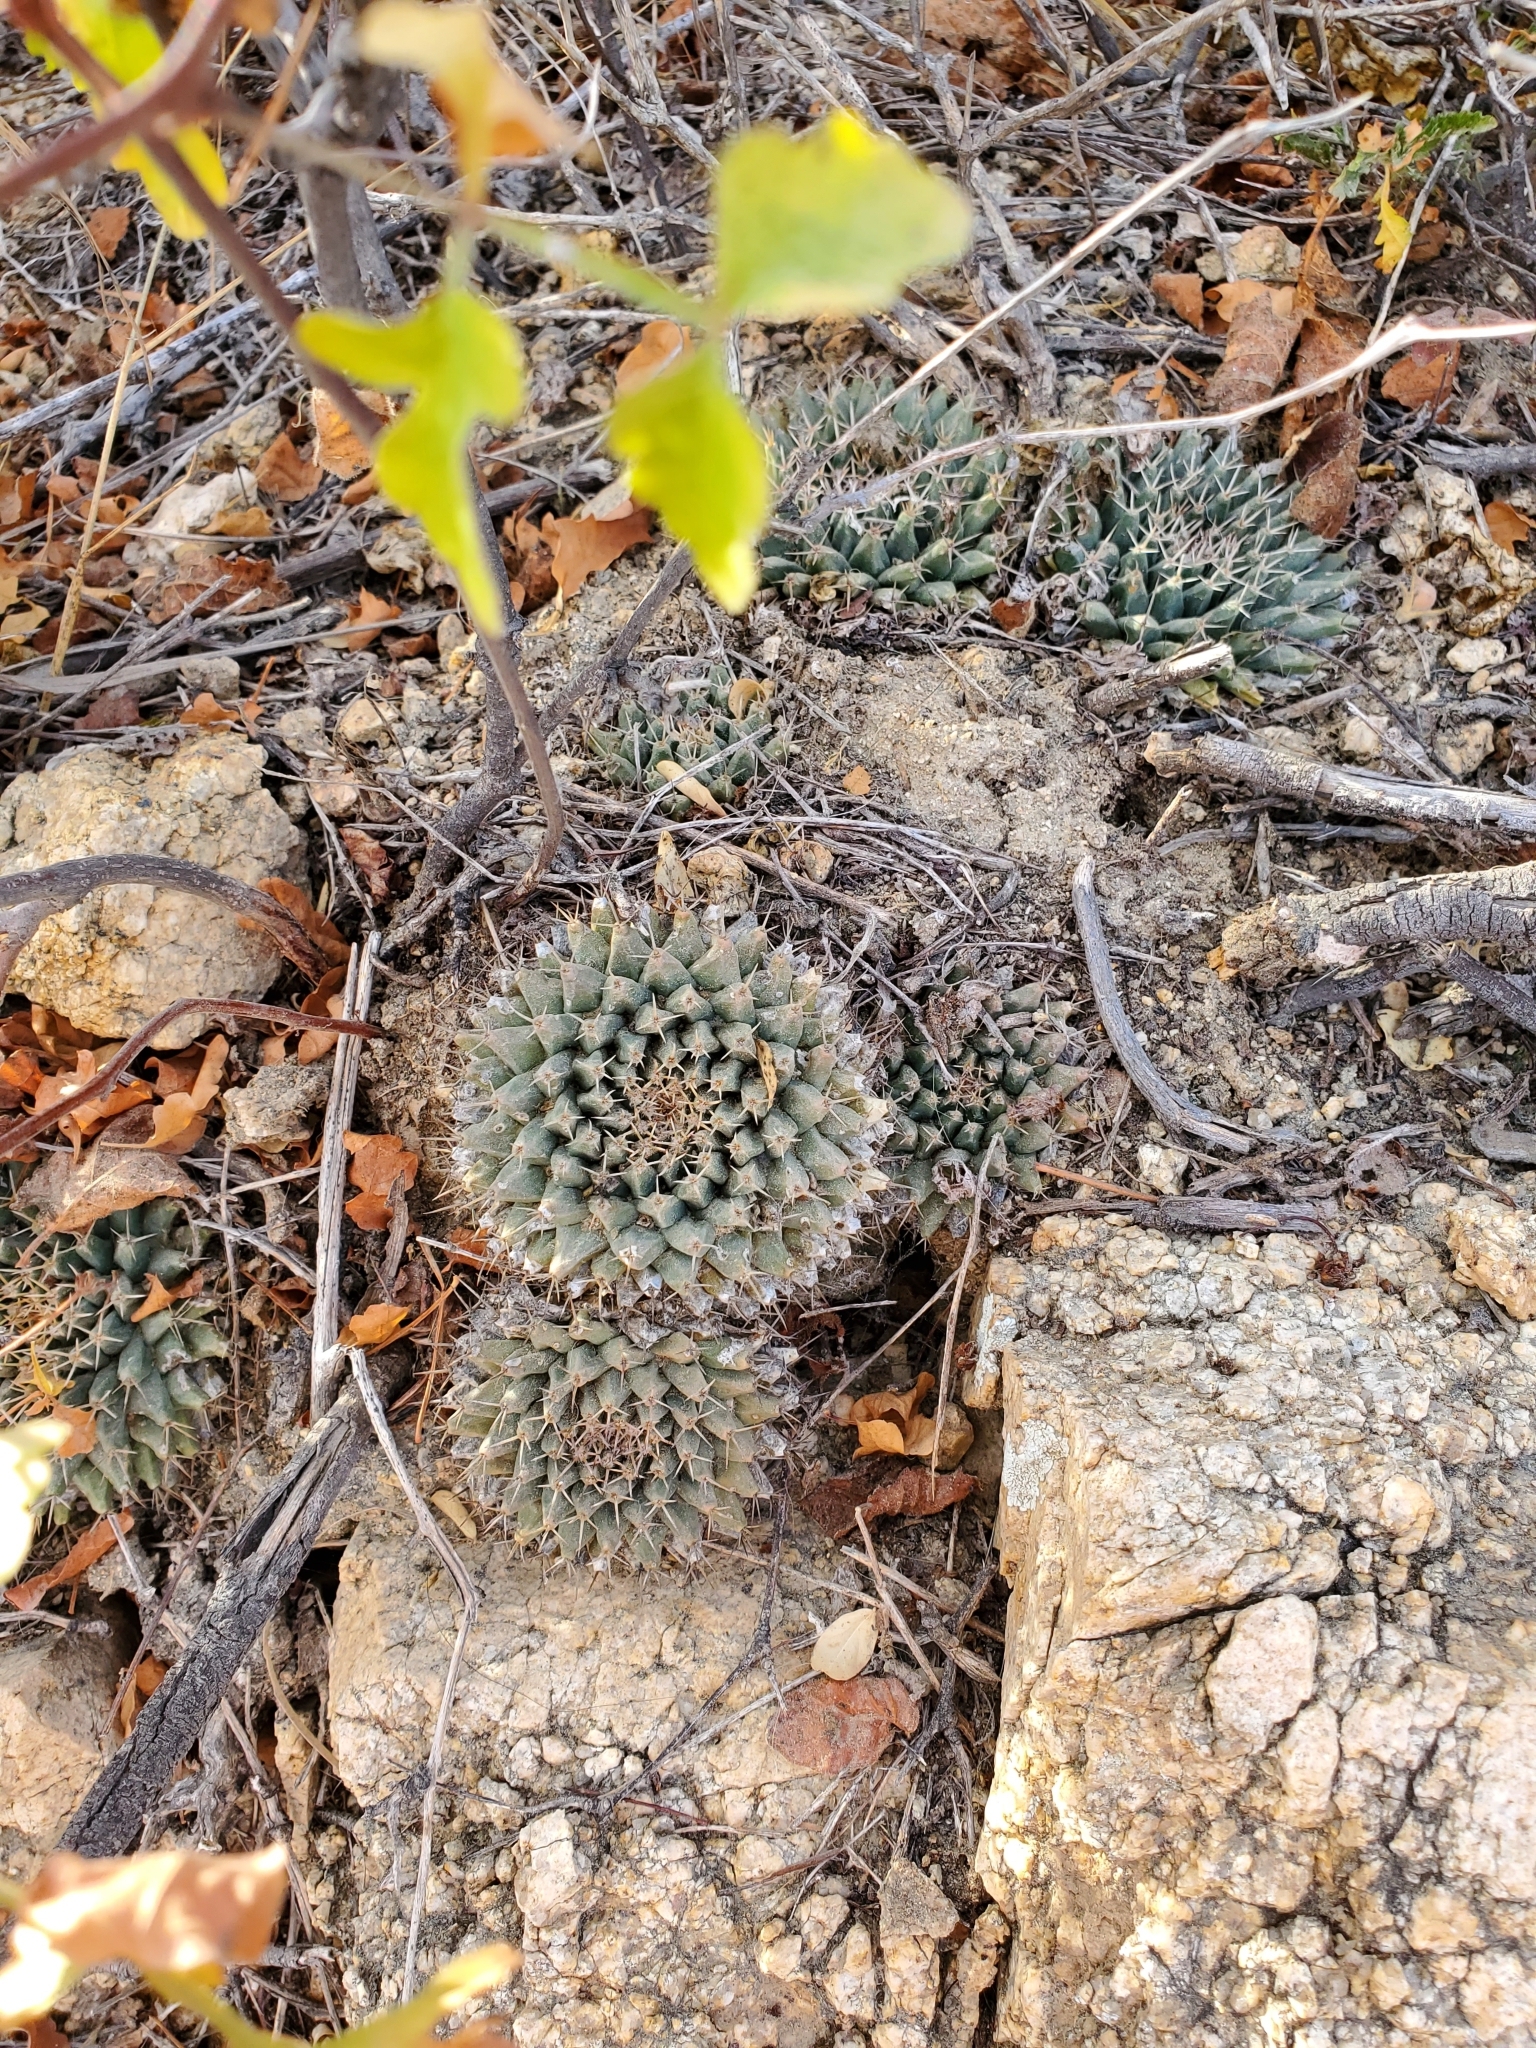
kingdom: Plantae
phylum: Tracheophyta
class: Magnoliopsida
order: Caryophyllales
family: Cactaceae
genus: Mammillaria
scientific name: Mammillaria peninsularis
